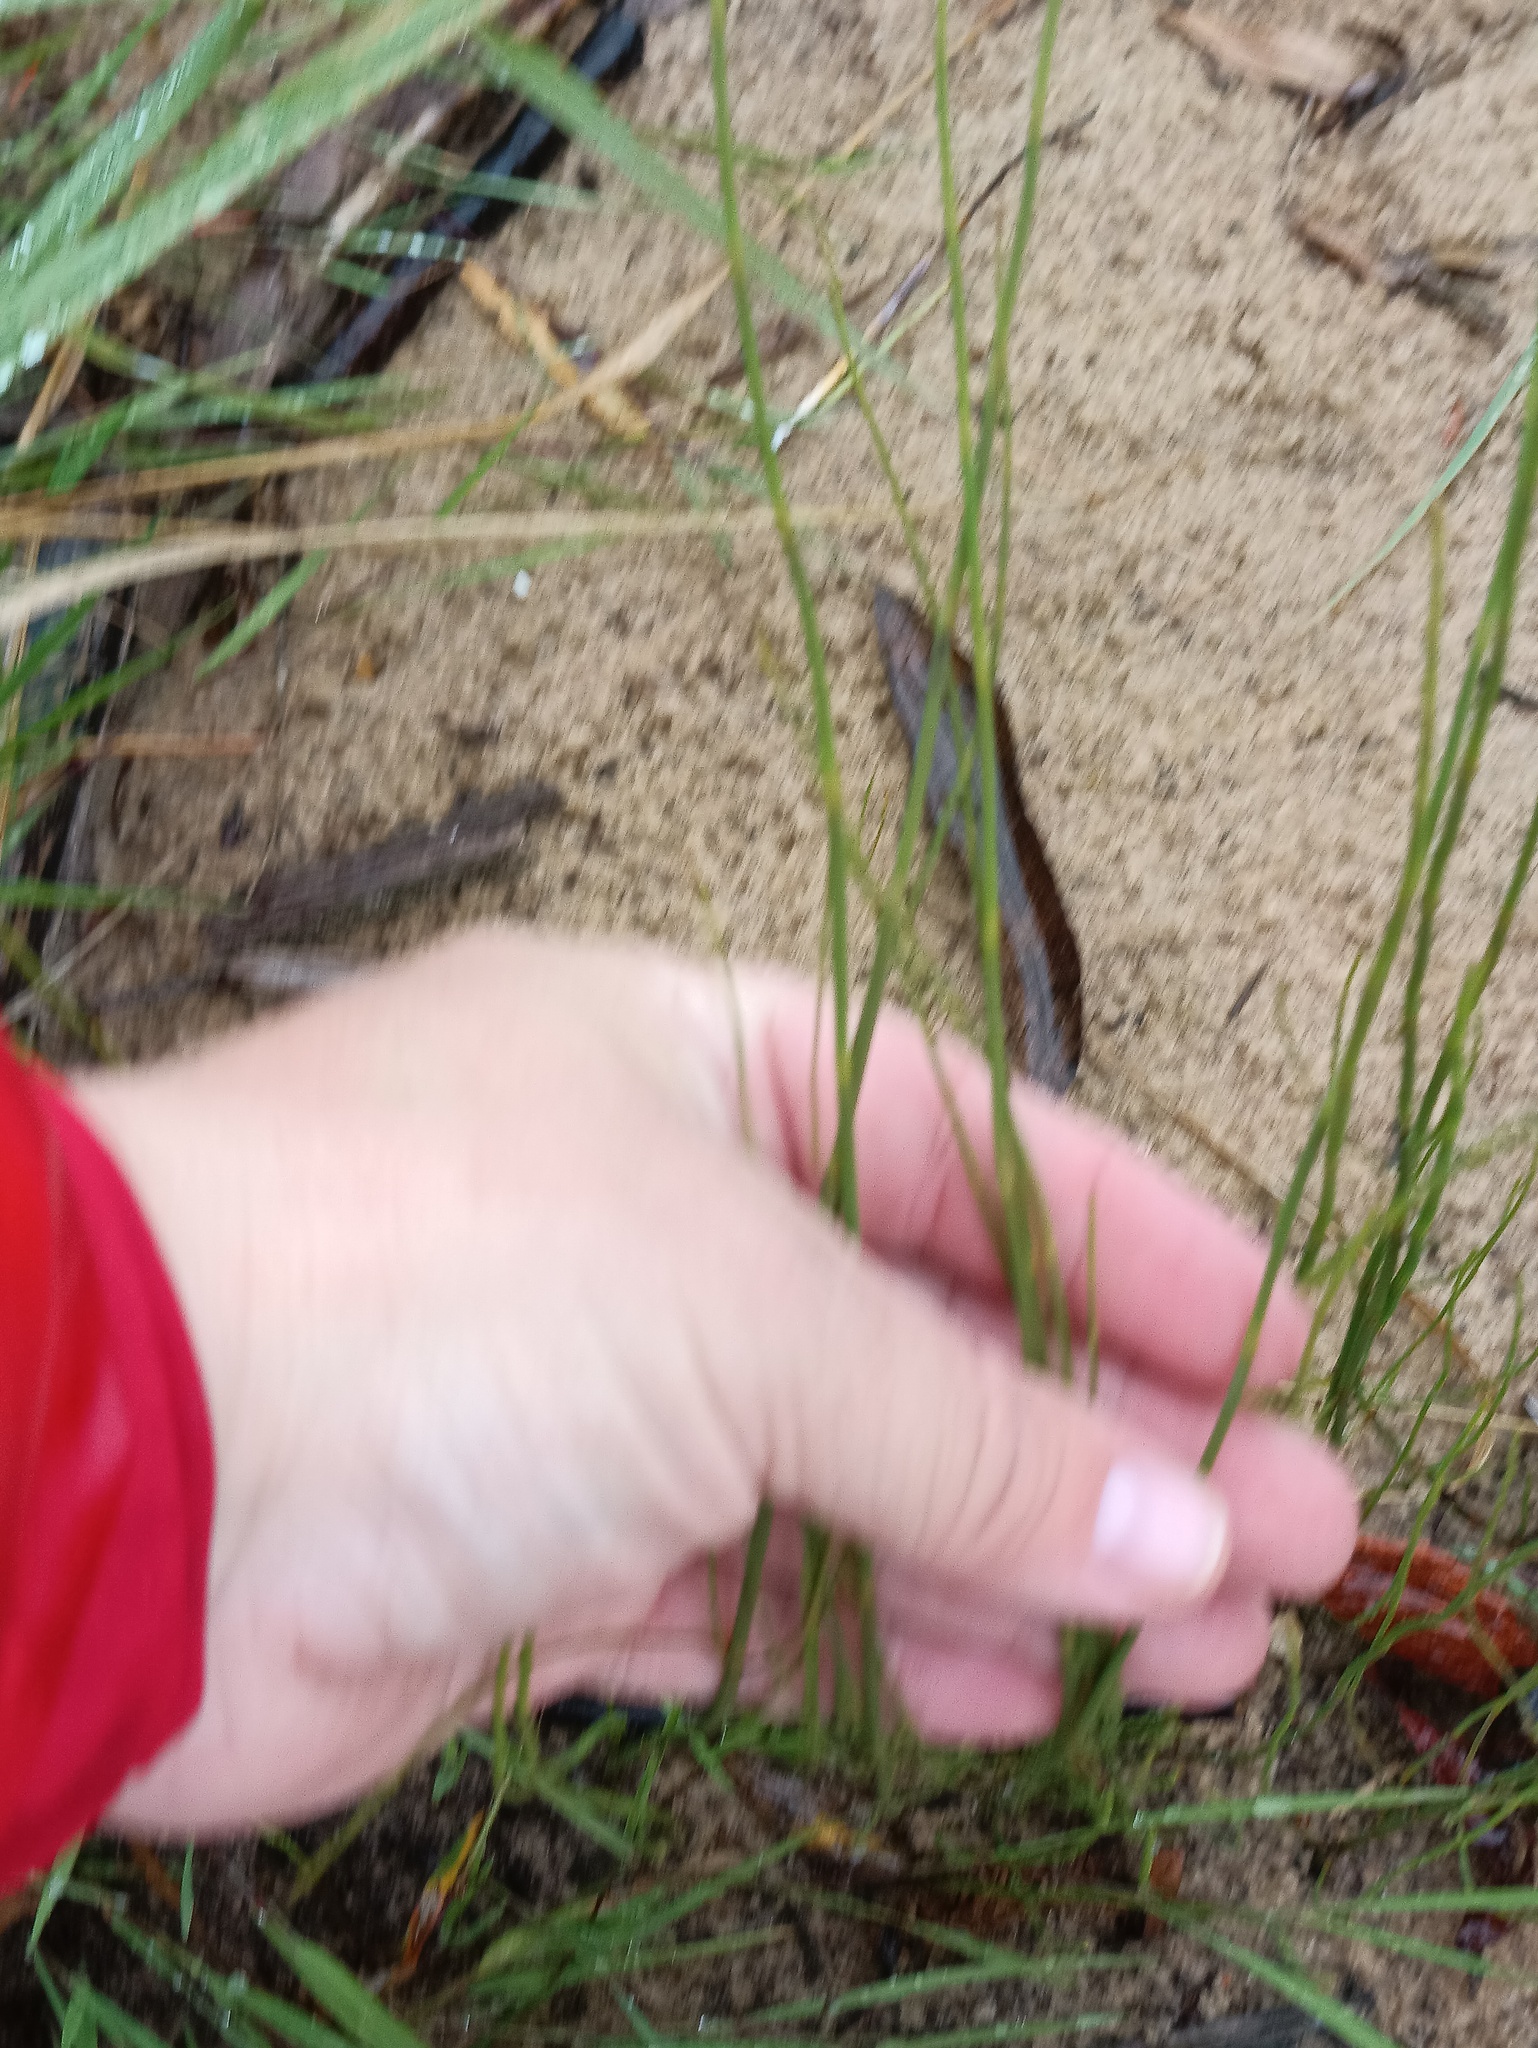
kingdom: Plantae
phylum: Tracheophyta
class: Polypodiopsida
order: Equisetales
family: Equisetaceae
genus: Equisetum
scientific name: Equisetum fluviatile
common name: Water horsetail
